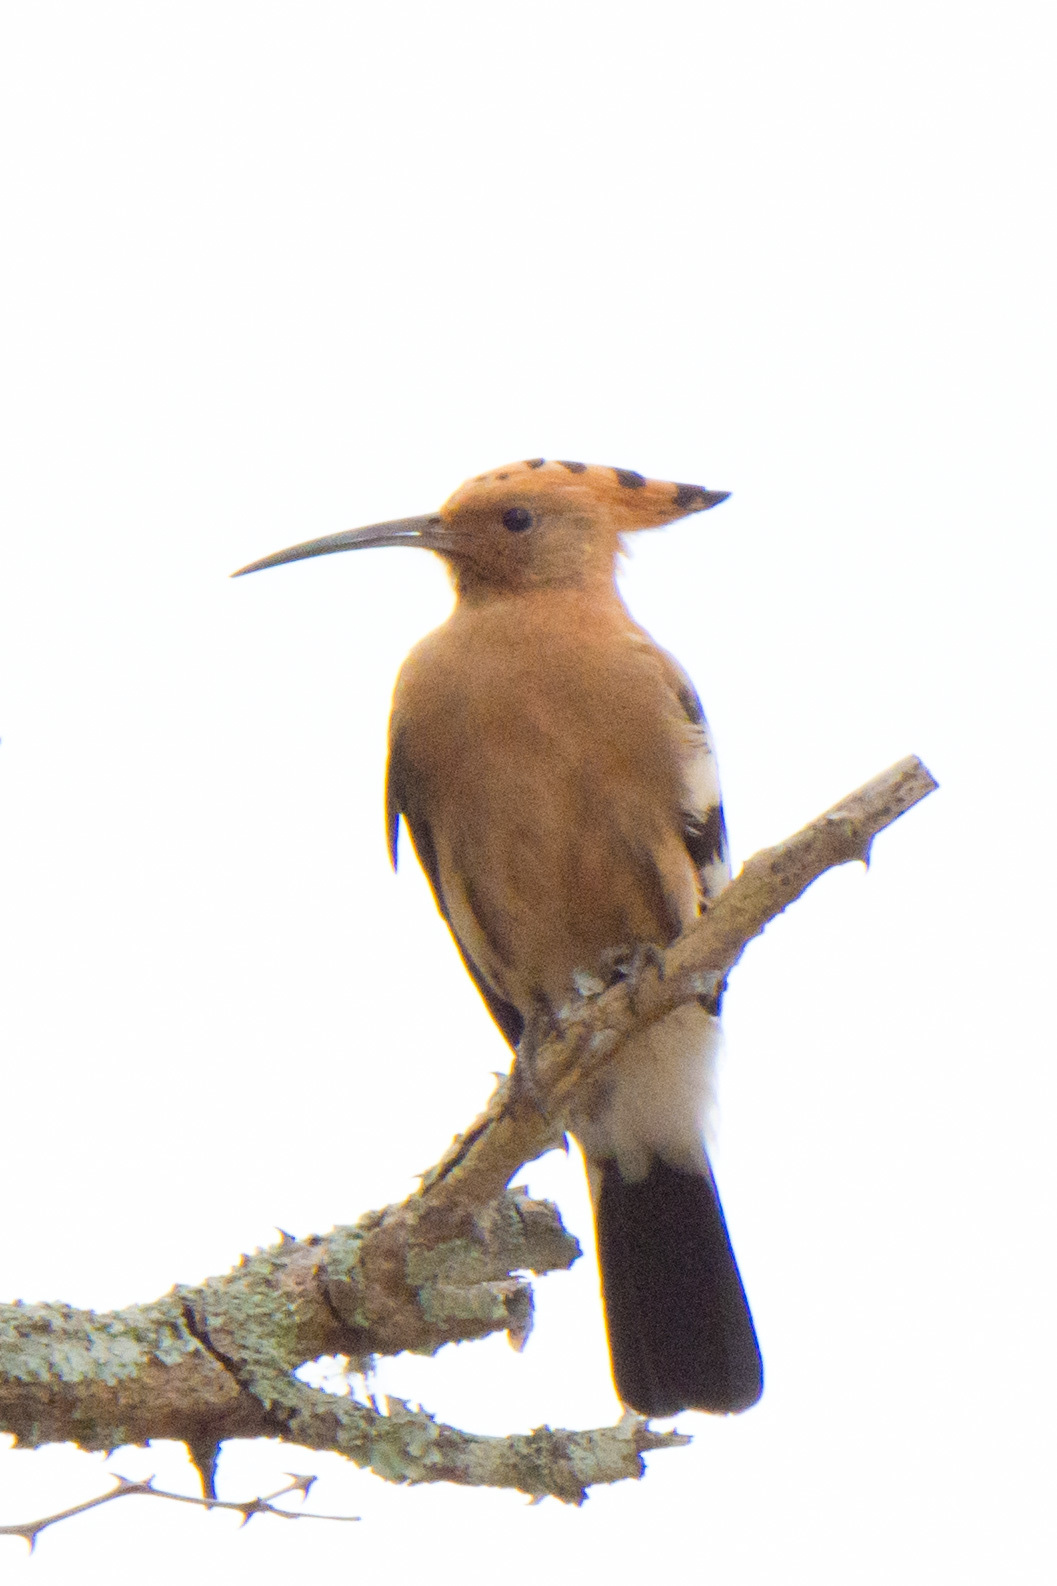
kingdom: Animalia
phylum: Chordata
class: Aves
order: Bucerotiformes
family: Upupidae
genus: Upupa
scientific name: Upupa africana
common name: African hoopoe
